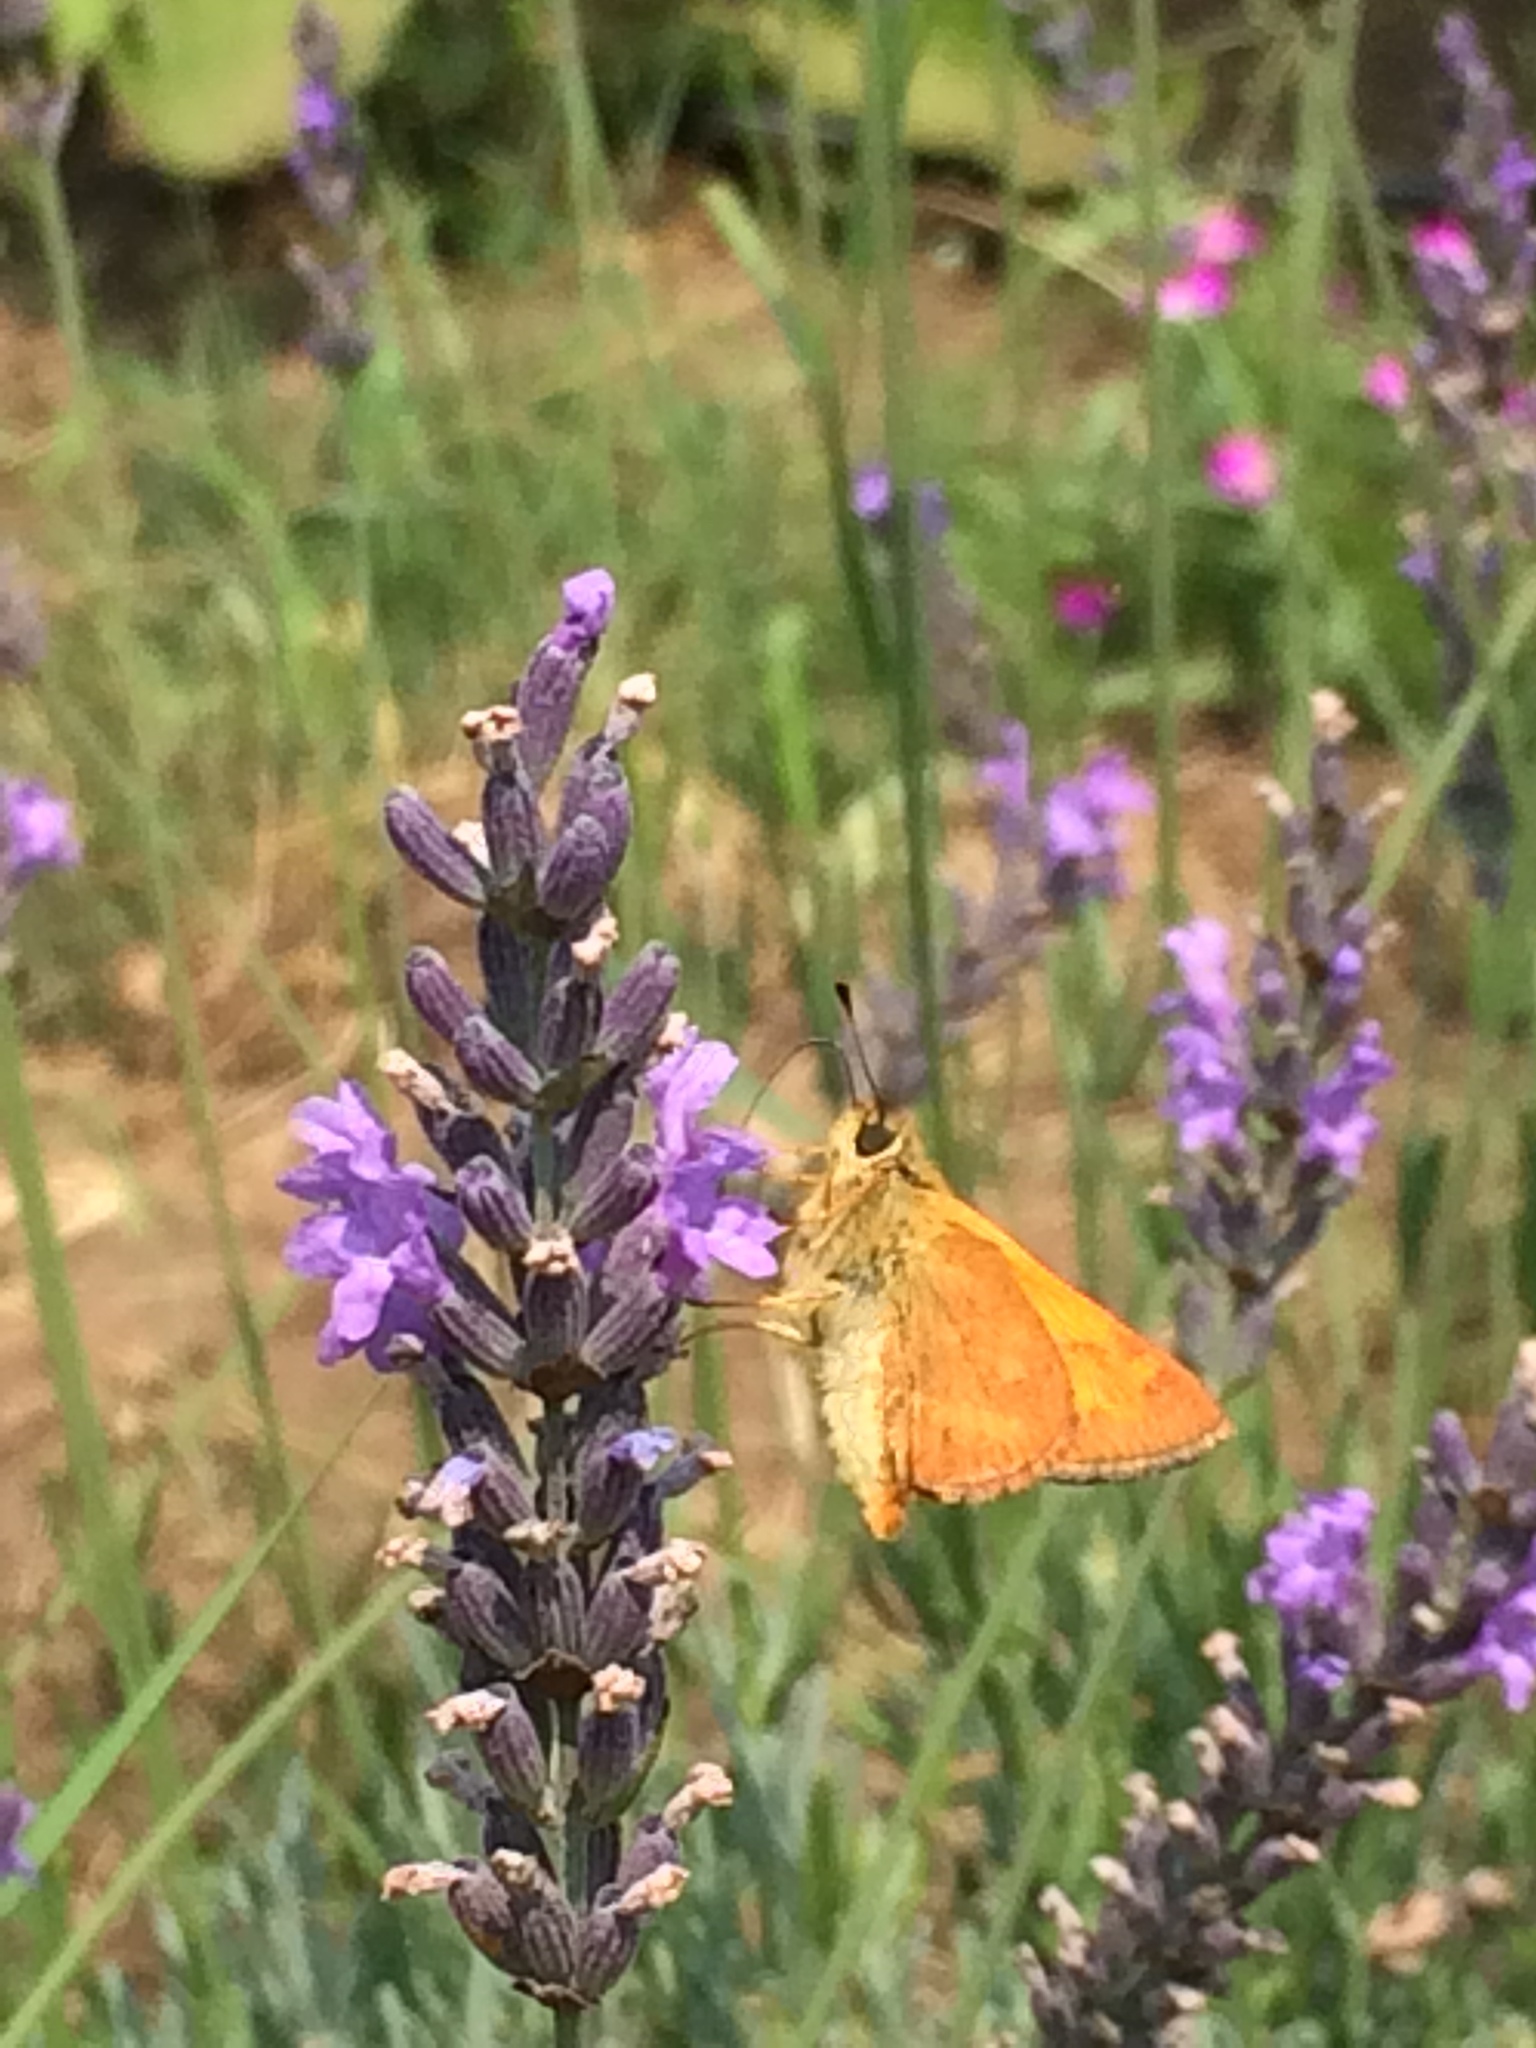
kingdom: Animalia
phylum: Arthropoda
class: Insecta
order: Lepidoptera
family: Hesperiidae
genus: Ochlodes
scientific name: Ochlodes sylvanoides
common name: Woodland skipper
